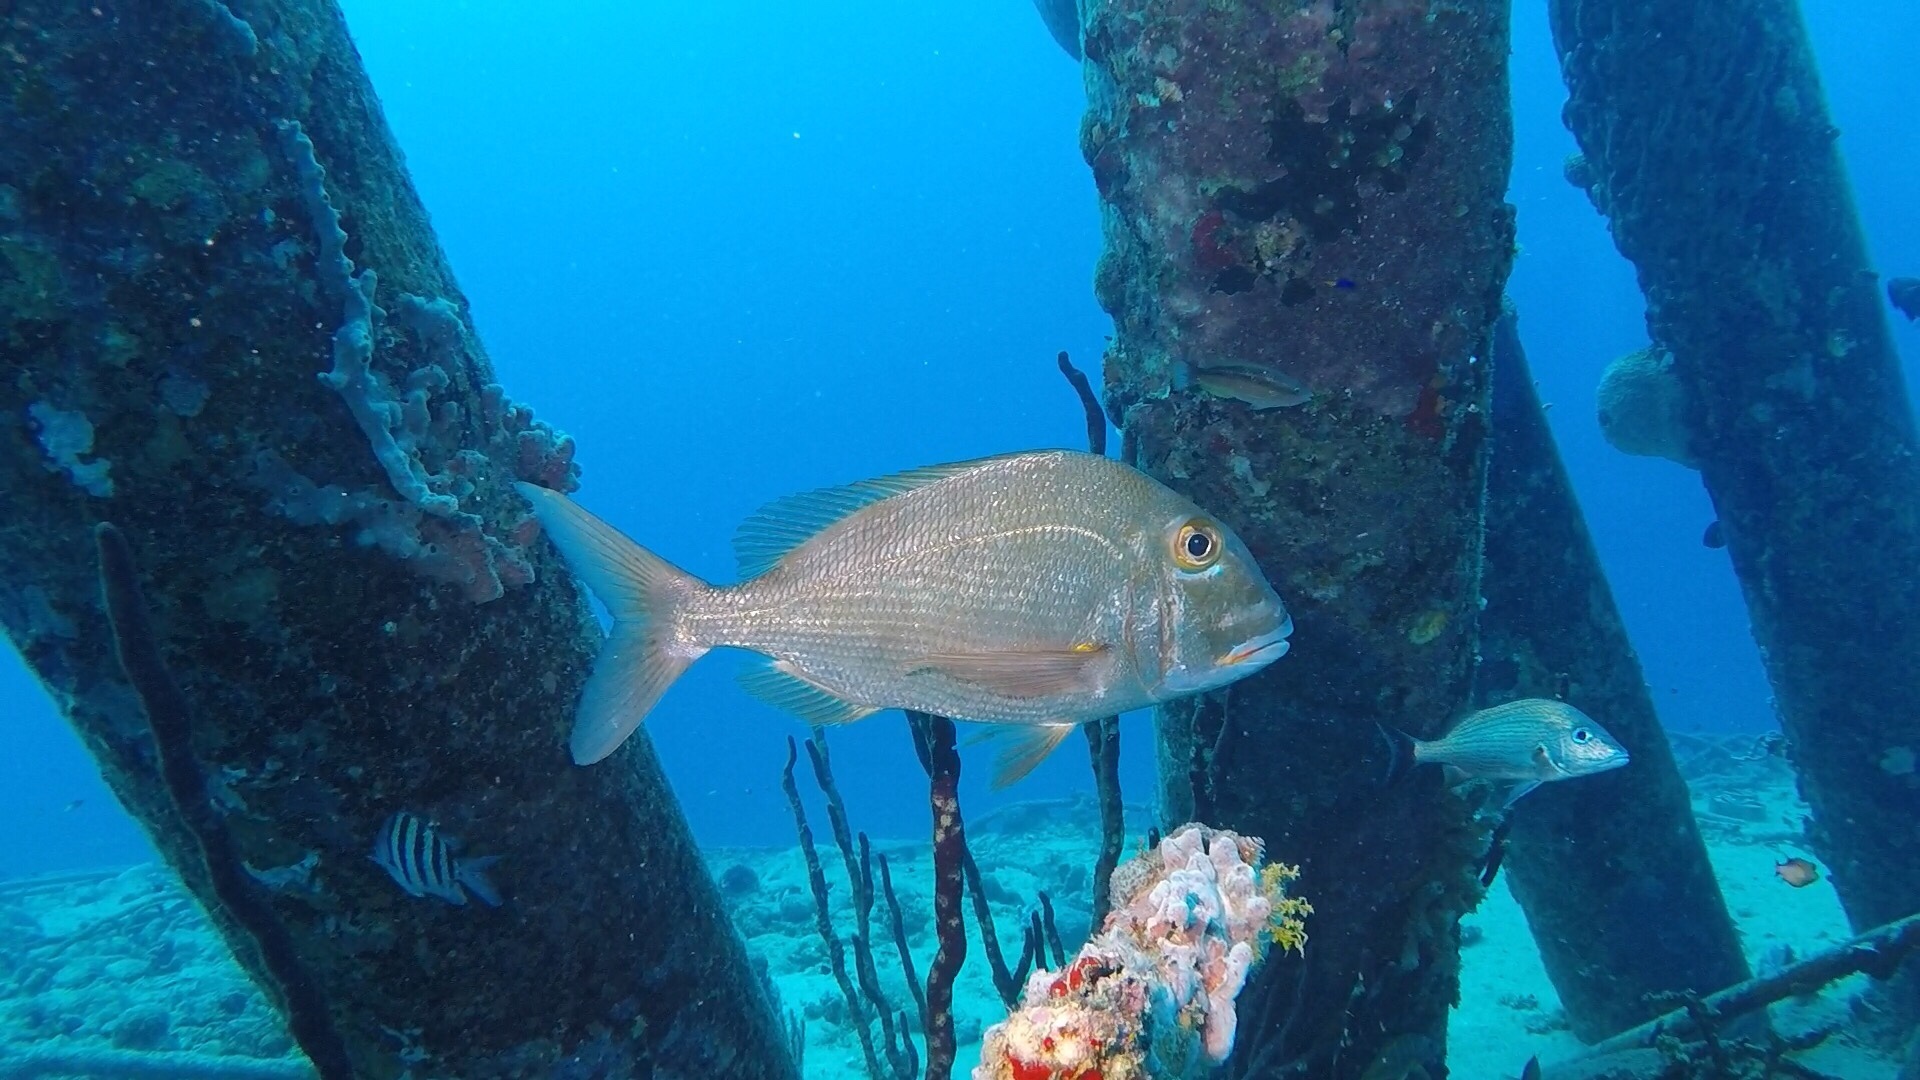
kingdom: Animalia
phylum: Chordata
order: Perciformes
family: Sparidae
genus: Calamus
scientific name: Calamus bajonado
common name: Jolthead porgy
